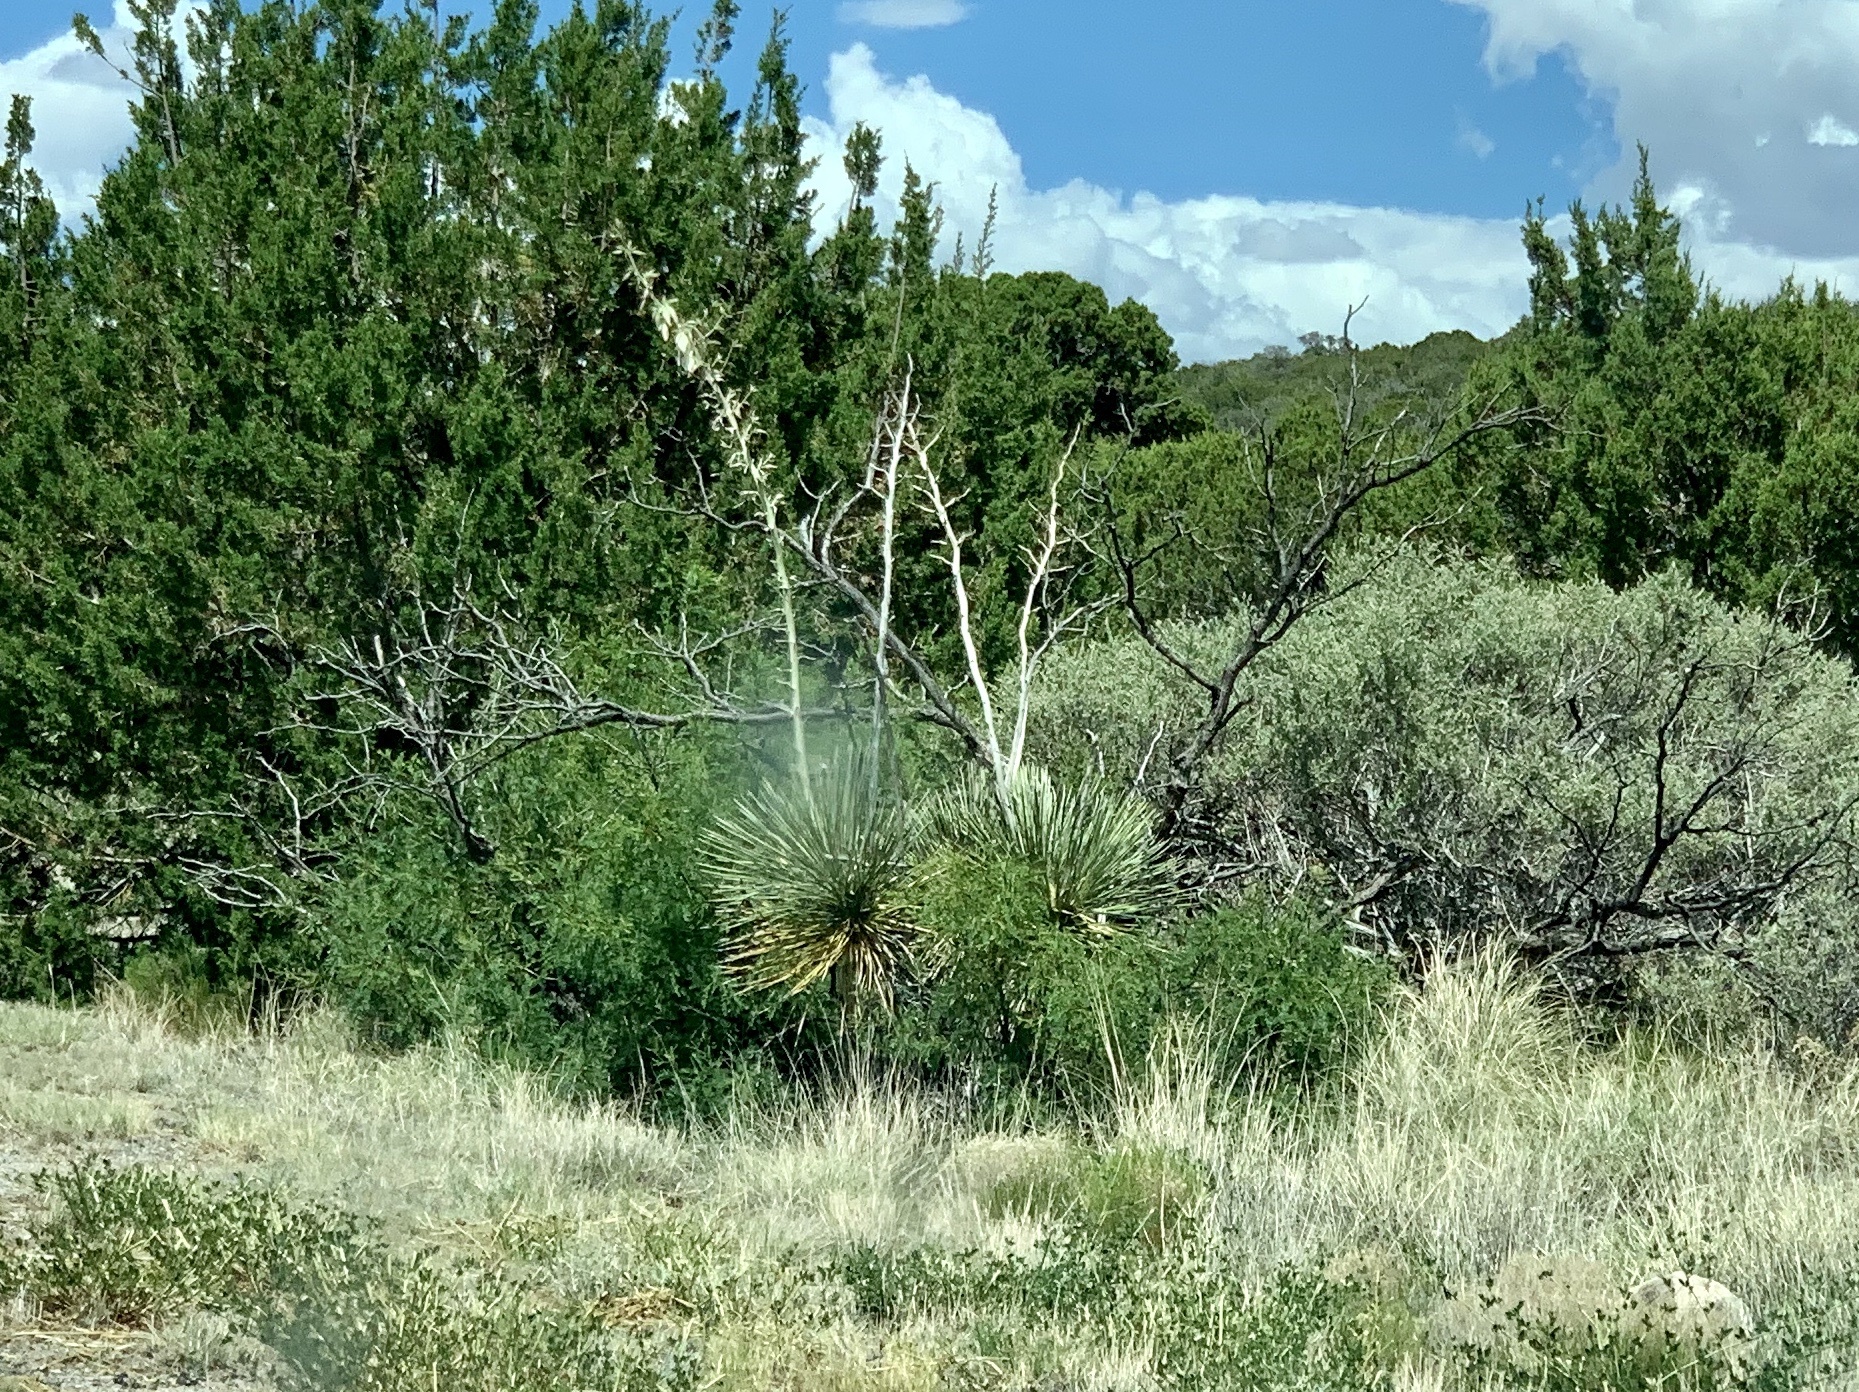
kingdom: Plantae
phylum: Tracheophyta
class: Liliopsida
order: Asparagales
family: Asparagaceae
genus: Yucca
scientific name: Yucca elata
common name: Palmella
